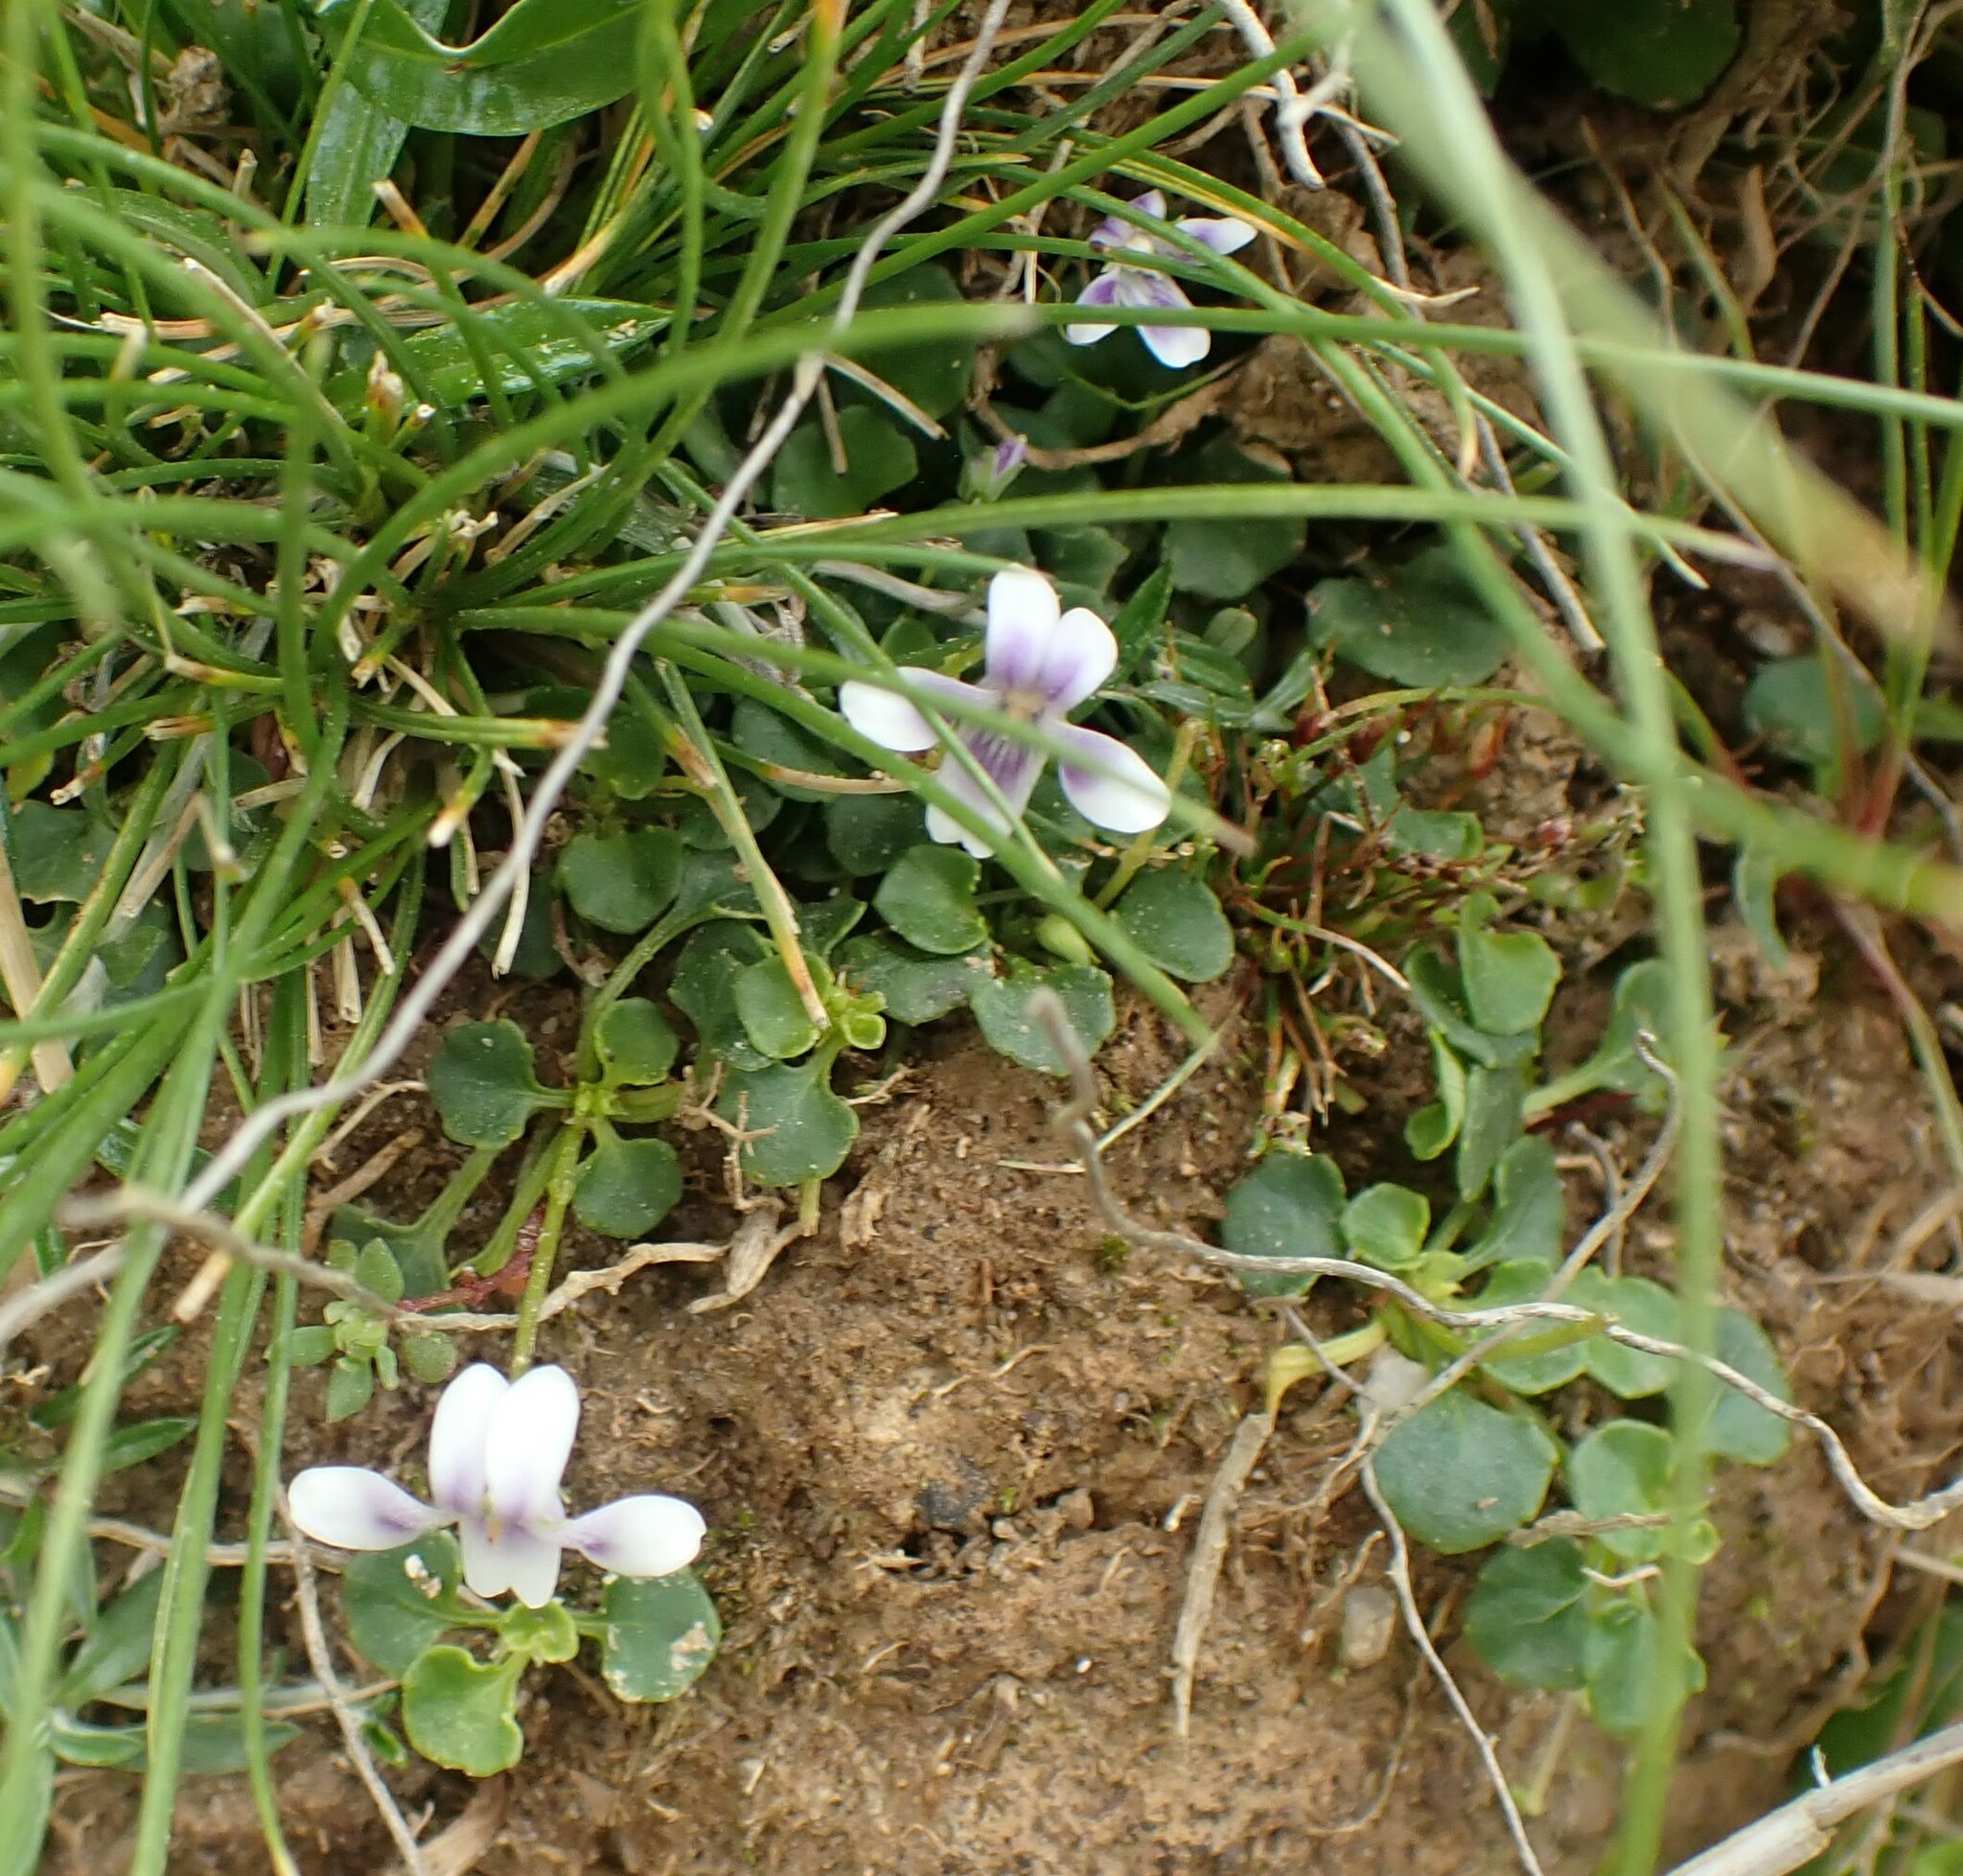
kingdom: Plantae
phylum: Tracheophyta
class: Magnoliopsida
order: Malpighiales
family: Violaceae
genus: Viola
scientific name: Viola hederacea
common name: Australian violet
